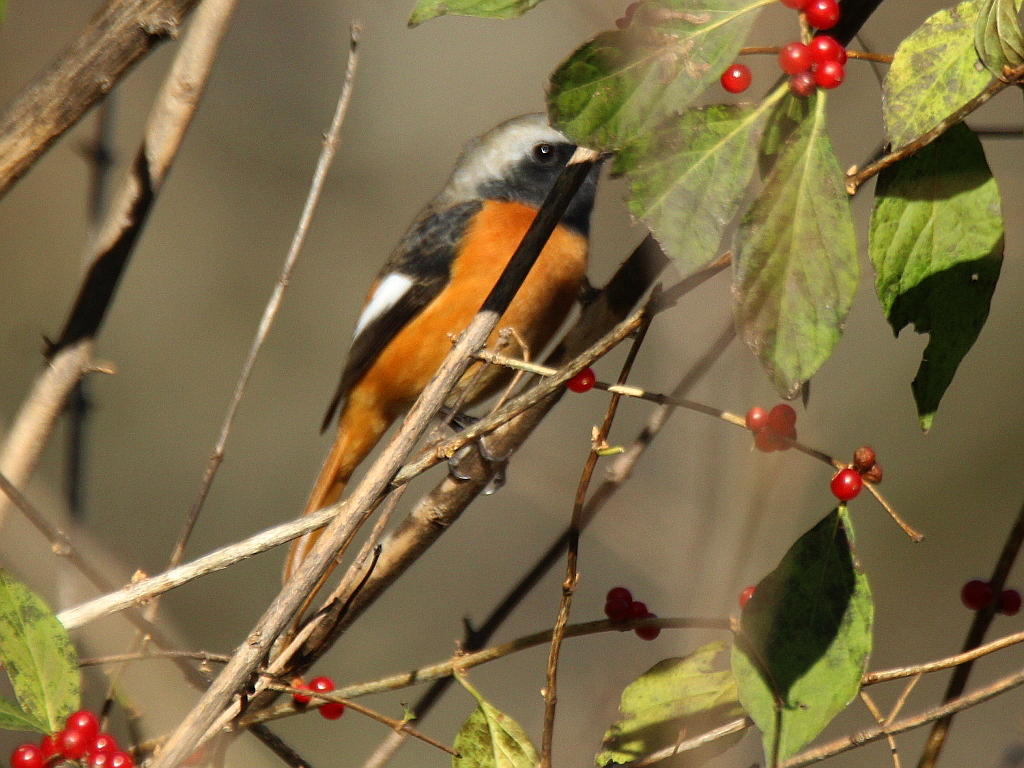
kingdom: Animalia
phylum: Chordata
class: Aves
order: Passeriformes
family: Muscicapidae
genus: Phoenicurus
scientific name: Phoenicurus auroreus
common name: Daurian redstart
